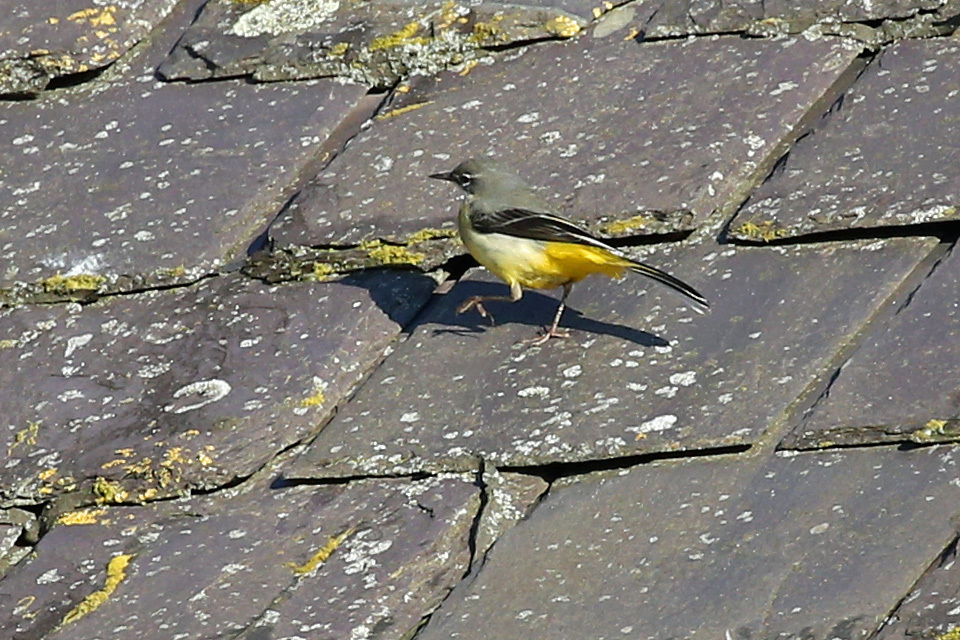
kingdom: Animalia
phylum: Chordata
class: Aves
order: Passeriformes
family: Motacillidae
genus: Motacilla
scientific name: Motacilla cinerea
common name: Grey wagtail
